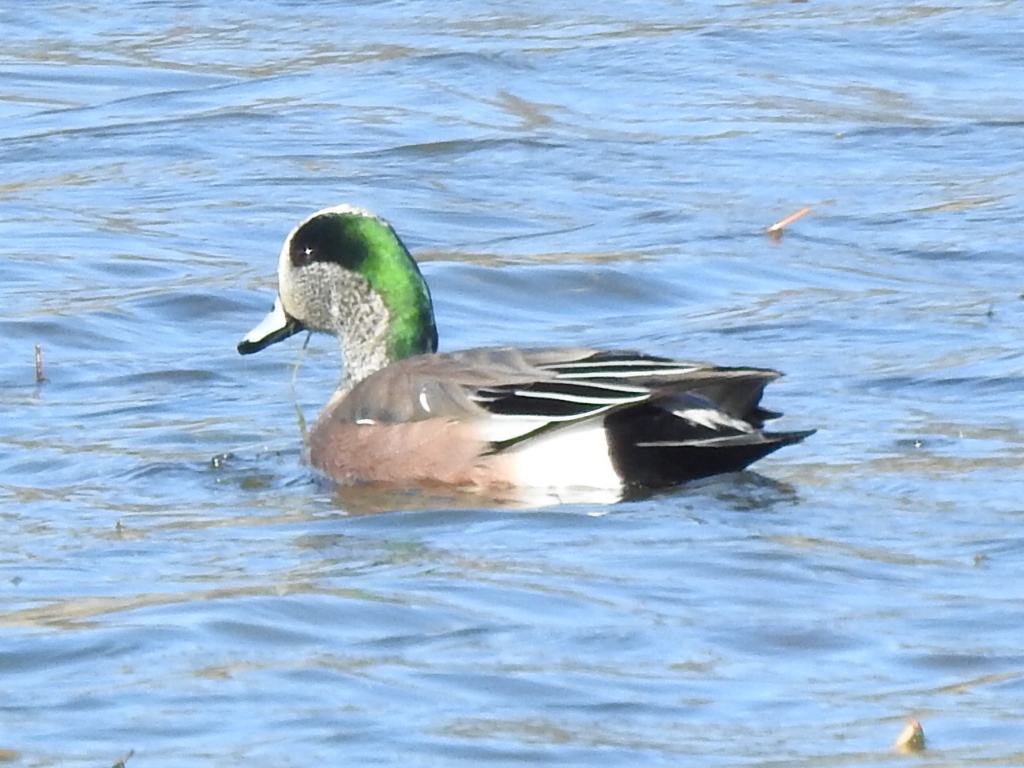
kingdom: Animalia
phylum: Chordata
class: Aves
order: Anseriformes
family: Anatidae
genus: Mareca
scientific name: Mareca americana
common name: American wigeon
